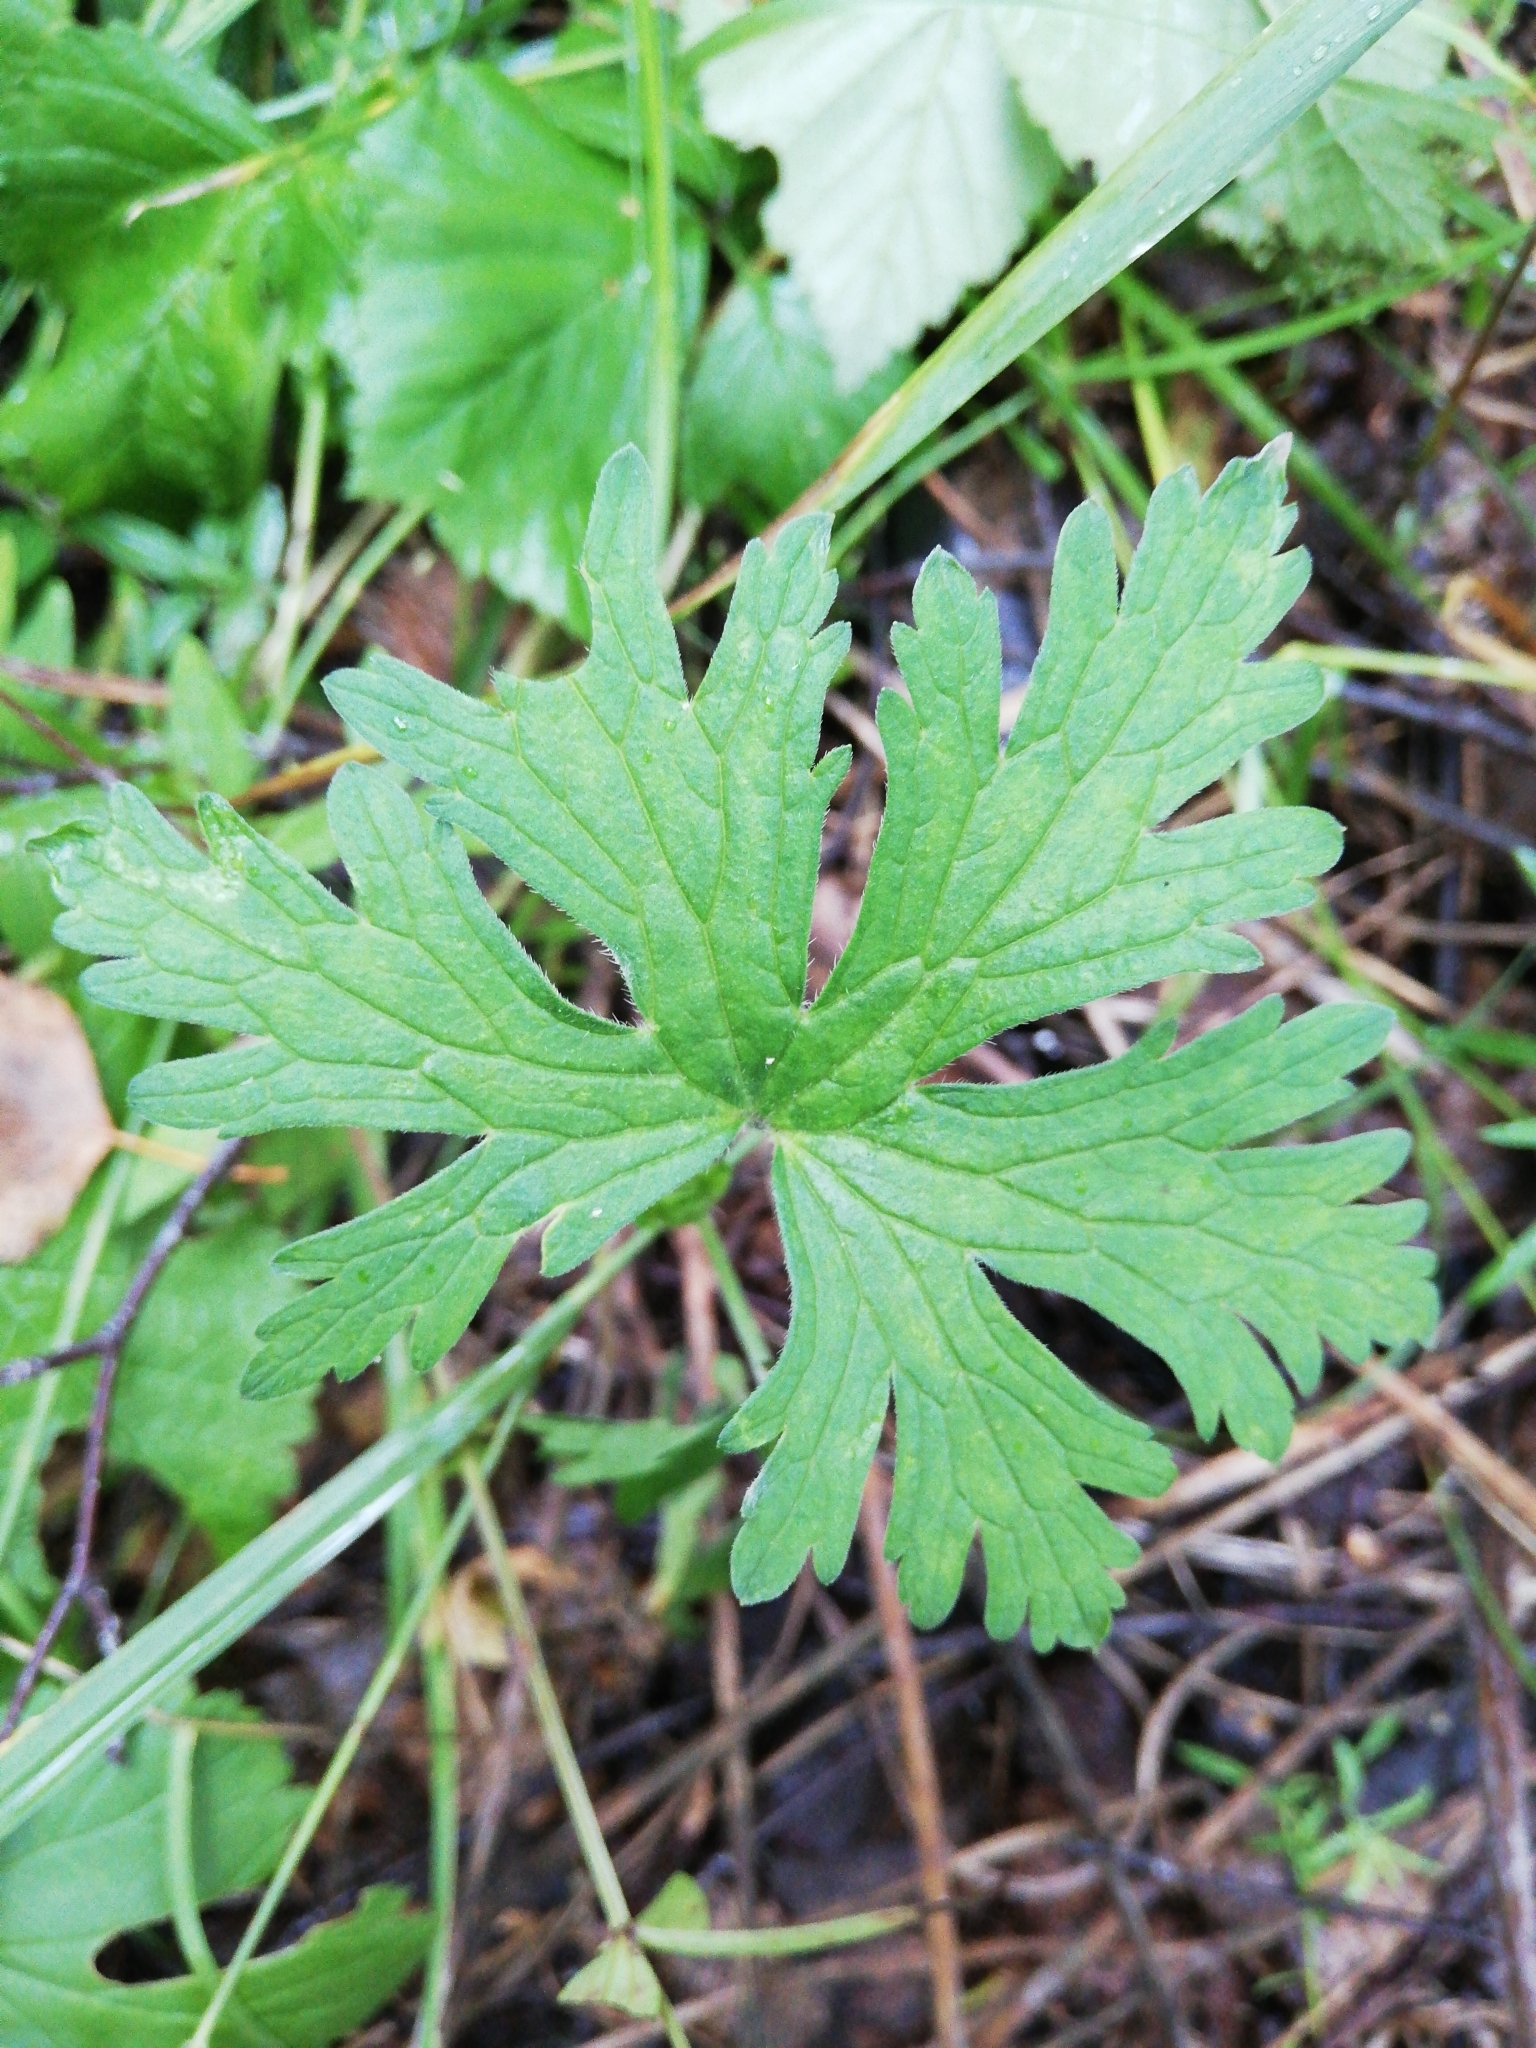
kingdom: Plantae
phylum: Tracheophyta
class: Magnoliopsida
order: Geraniales
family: Geraniaceae
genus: Geranium
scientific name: Geranium sibiricum
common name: Siberian crane's-bill
